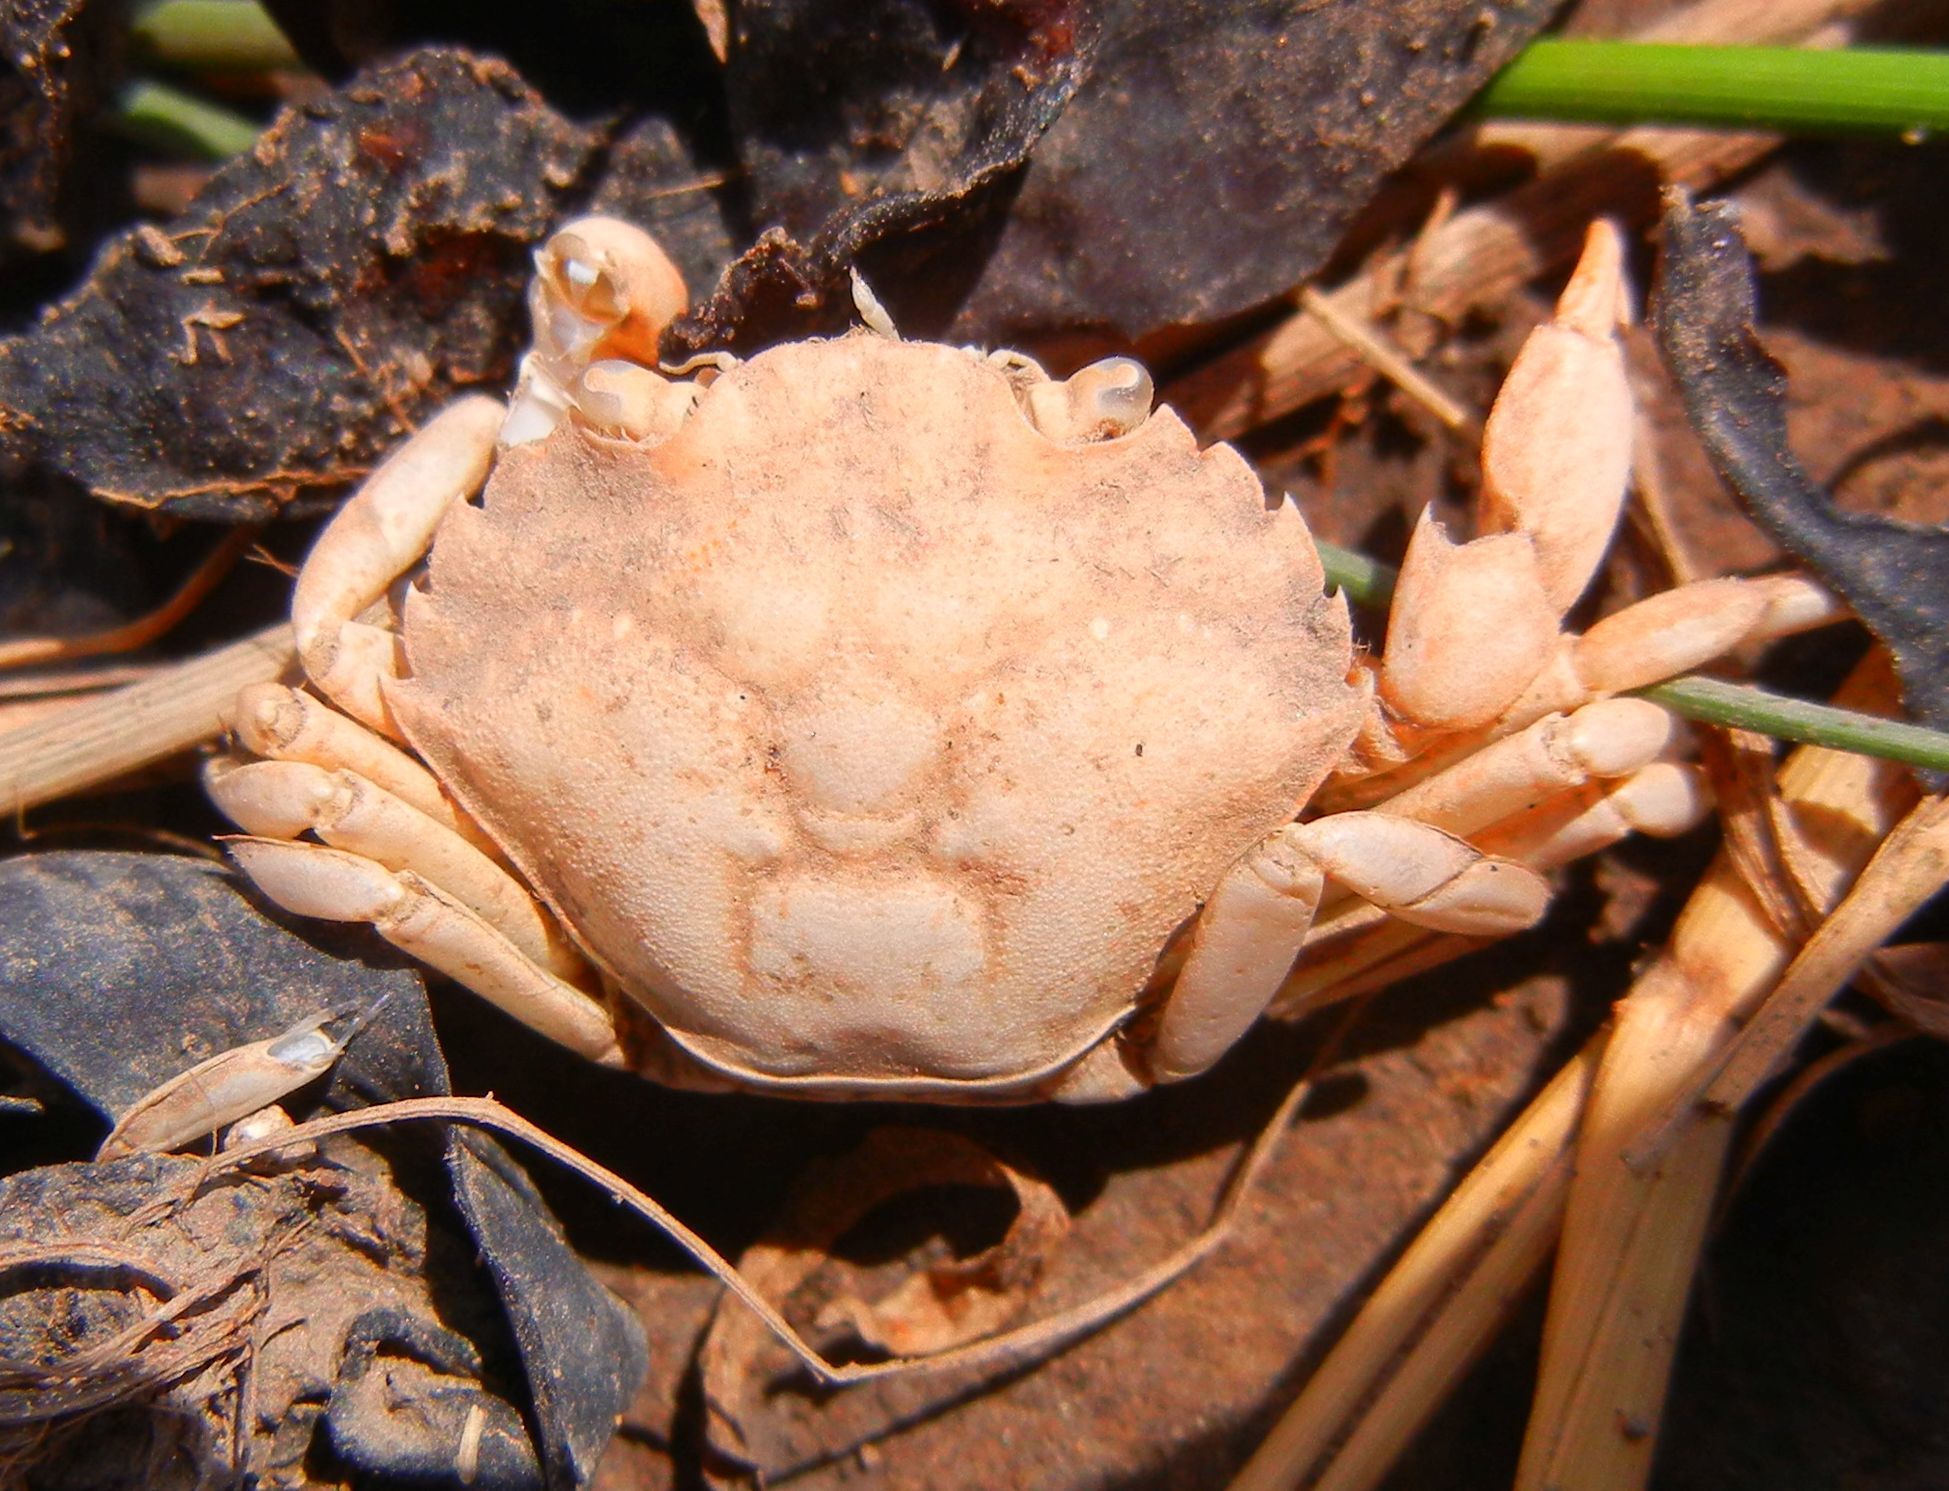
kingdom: Animalia
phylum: Arthropoda
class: Malacostraca
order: Decapoda
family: Carcinidae
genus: Carcinus
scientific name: Carcinus maenas
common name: European green crab
